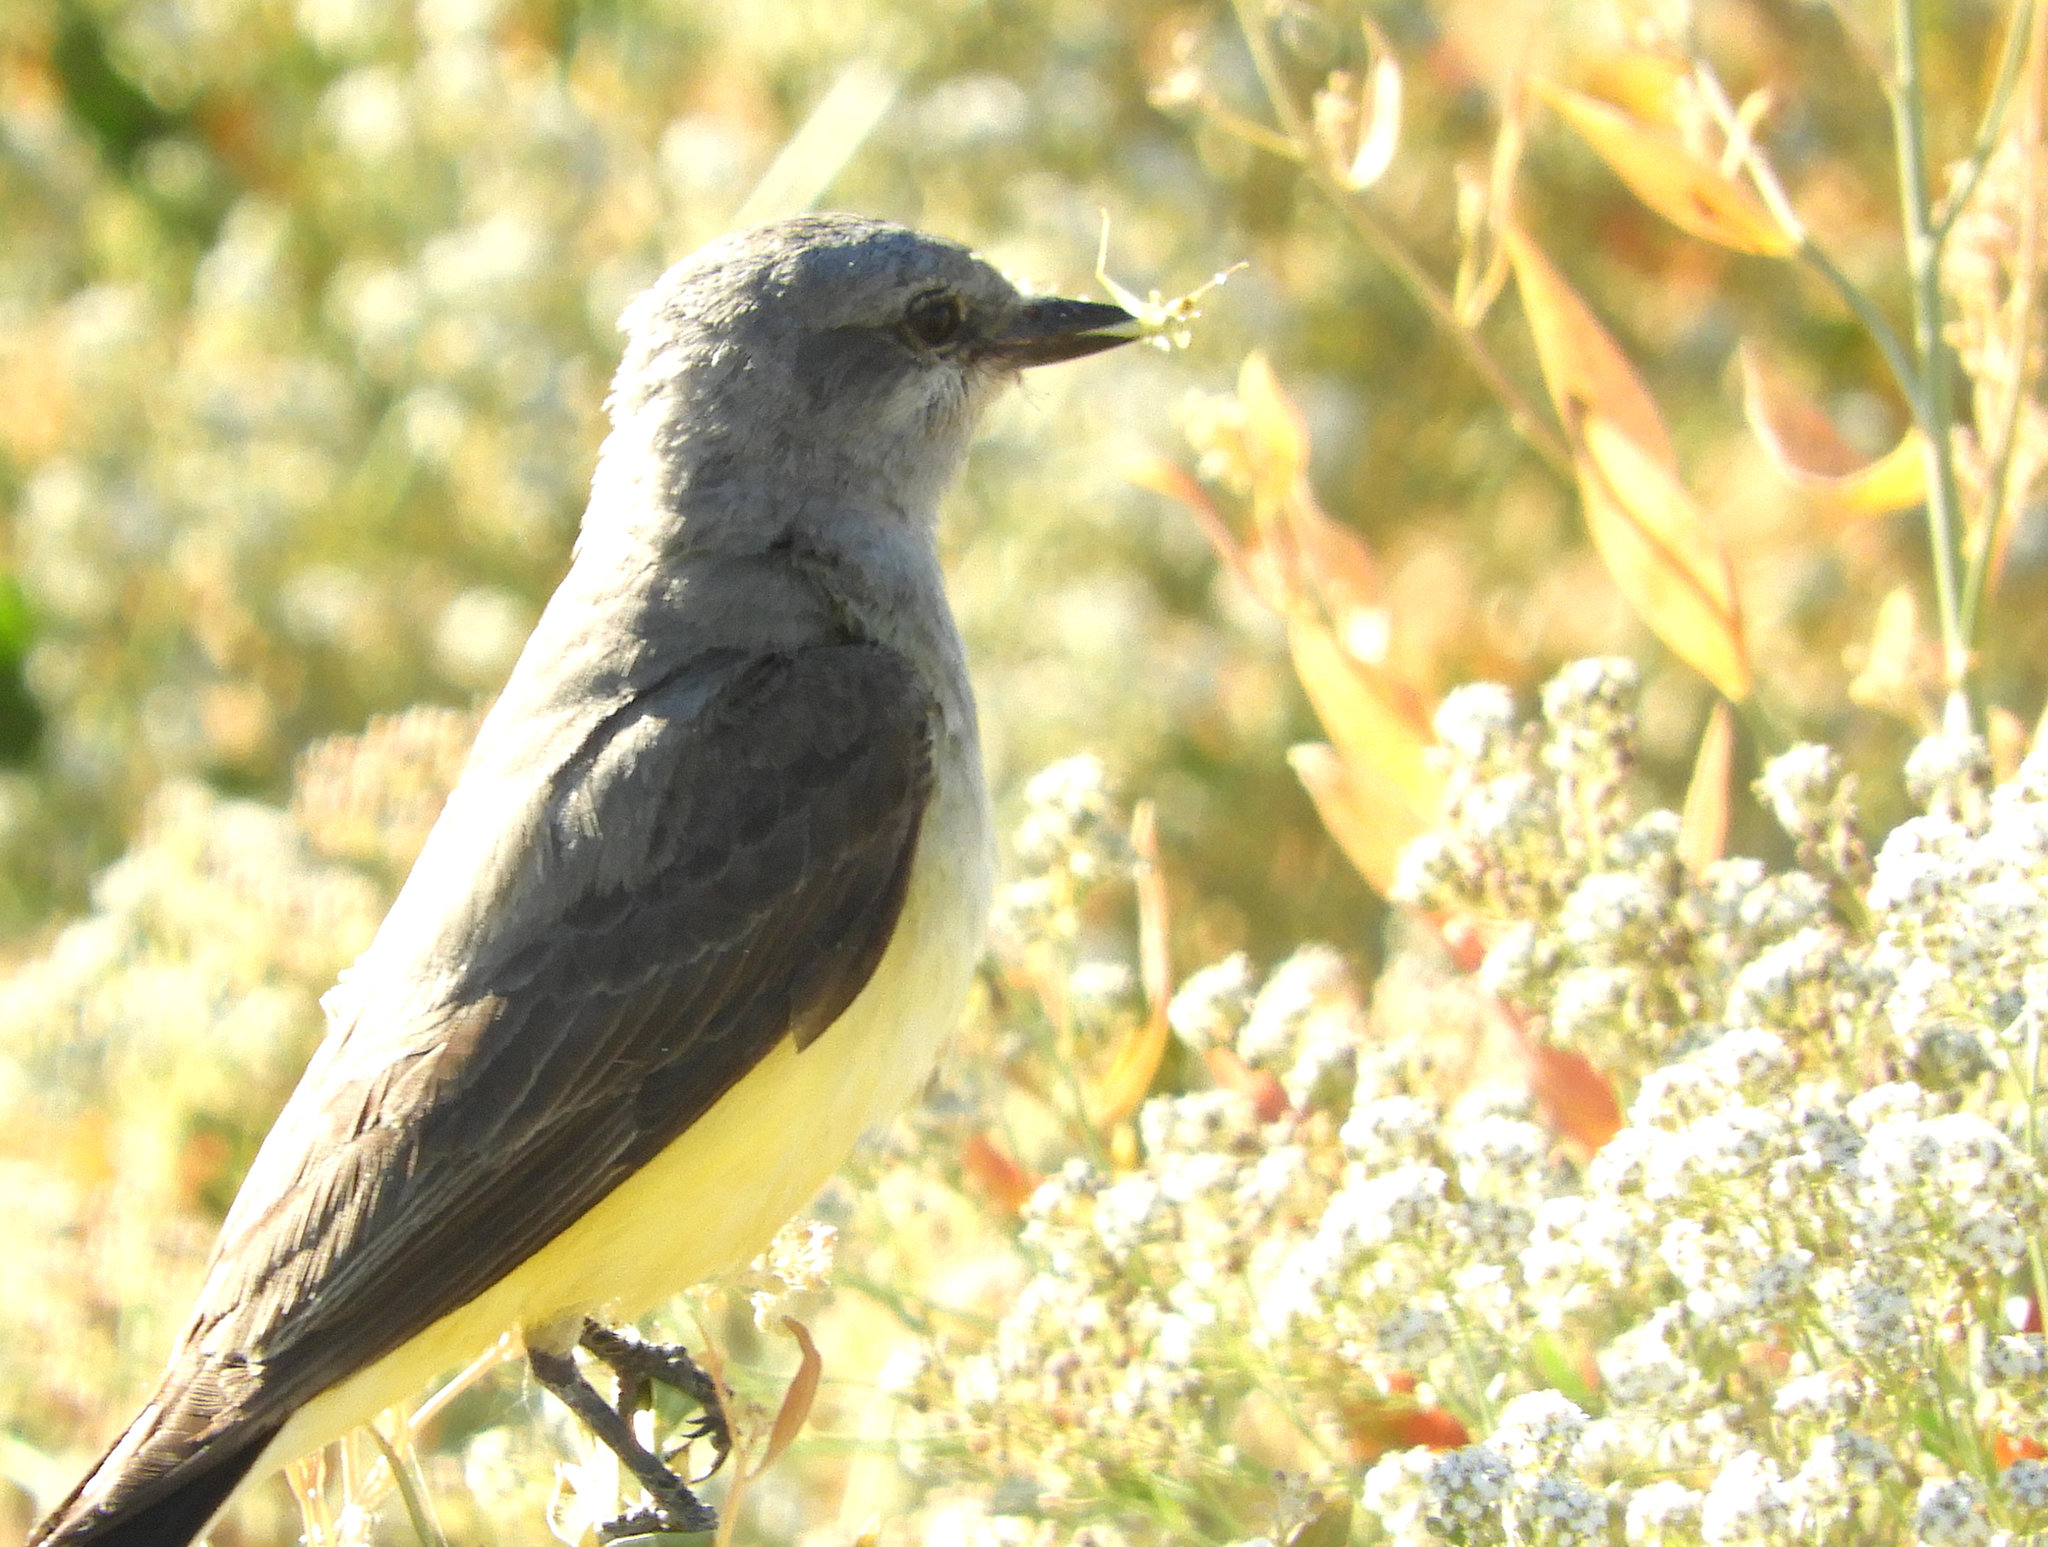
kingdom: Animalia
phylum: Chordata
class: Aves
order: Passeriformes
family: Tyrannidae
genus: Tyrannus
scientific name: Tyrannus verticalis
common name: Western kingbird
